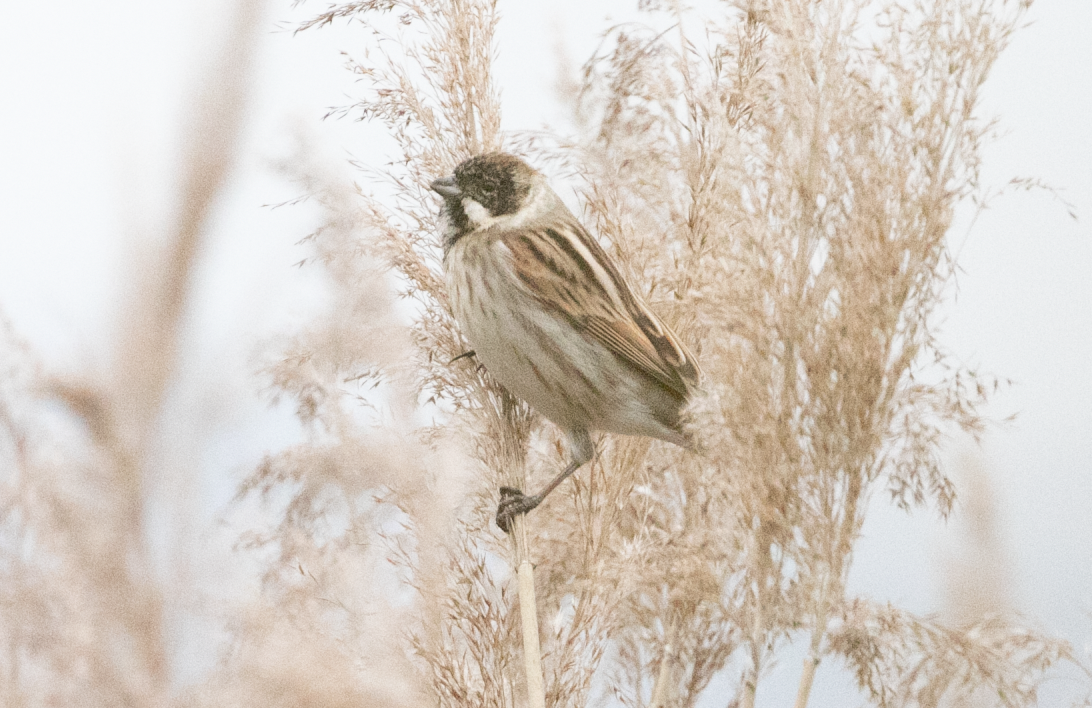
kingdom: Animalia
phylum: Chordata
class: Aves
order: Passeriformes
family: Emberizidae
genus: Emberiza
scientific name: Emberiza schoeniclus
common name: Reed bunting
